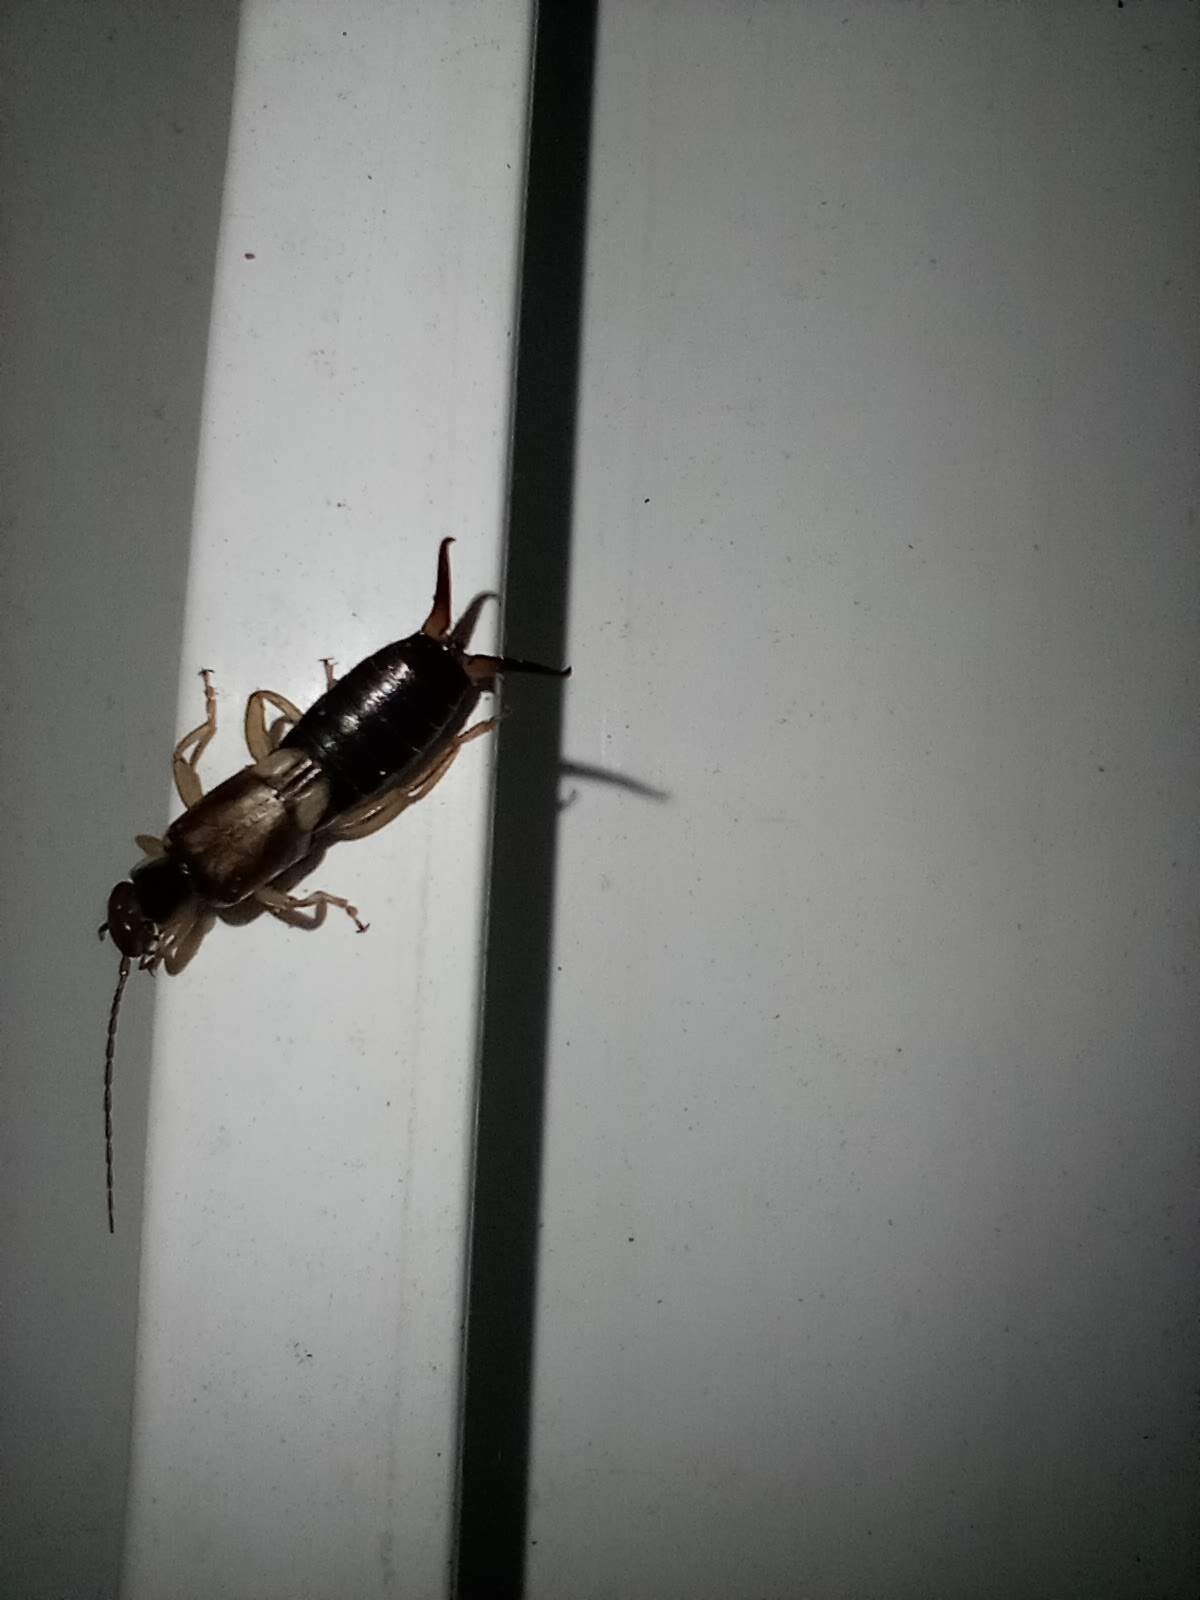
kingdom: Animalia
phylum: Arthropoda
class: Insecta
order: Dermaptera
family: Forficulidae
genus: Forficula
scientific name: Forficula dentata
